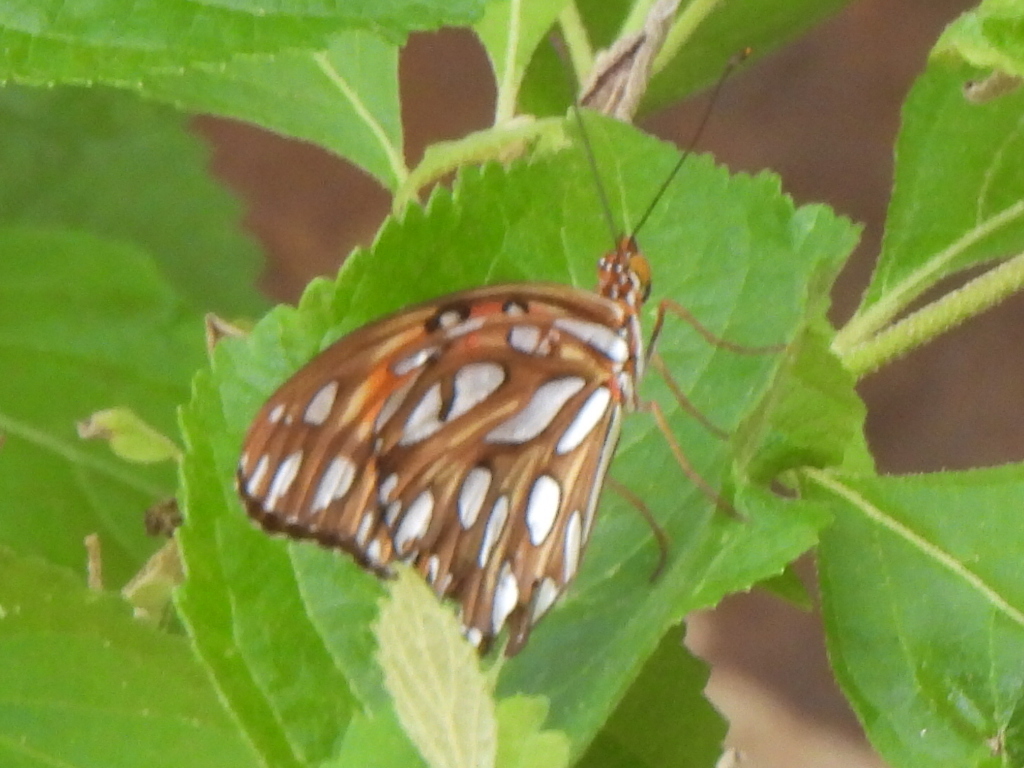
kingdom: Animalia
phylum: Arthropoda
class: Insecta
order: Lepidoptera
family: Nymphalidae
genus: Dione
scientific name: Dione vanillae
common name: Gulf fritillary
